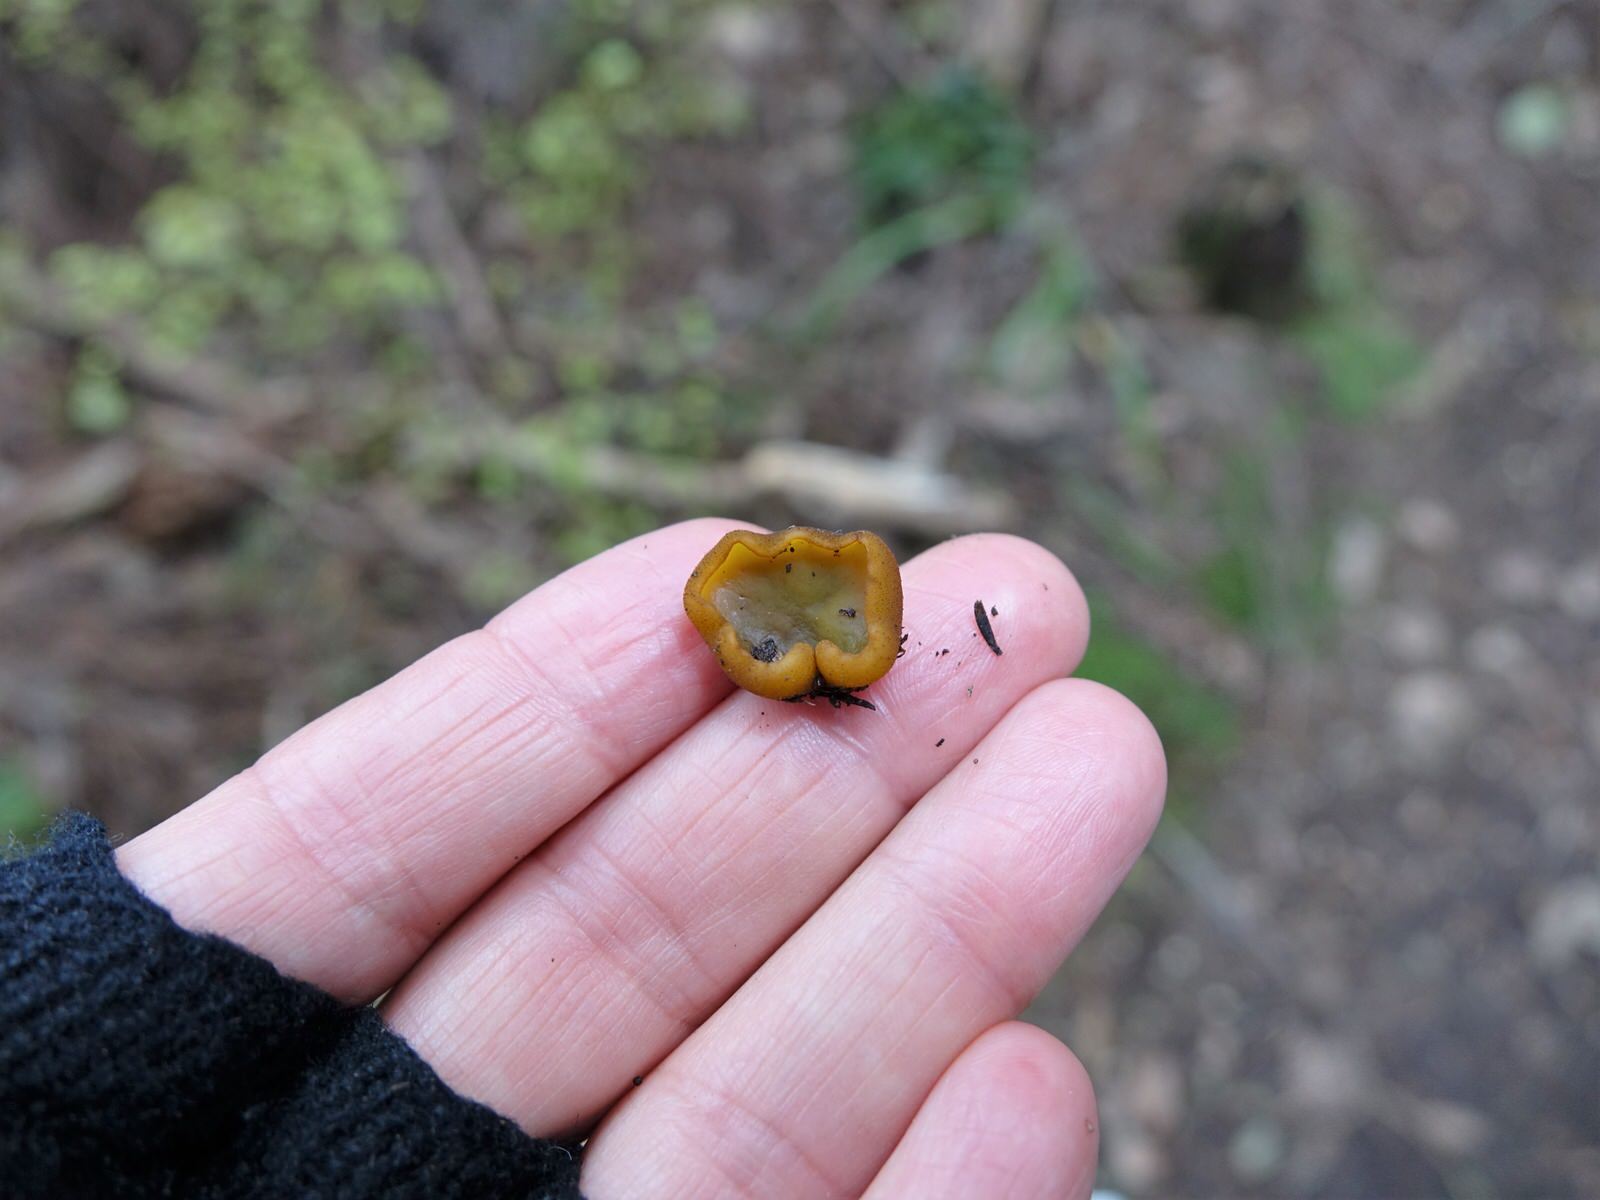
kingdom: Fungi
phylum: Ascomycota
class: Pezizomycetes
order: Pezizales
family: Pyronemataceae
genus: Aleurina
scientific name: Aleurina magnicellula
